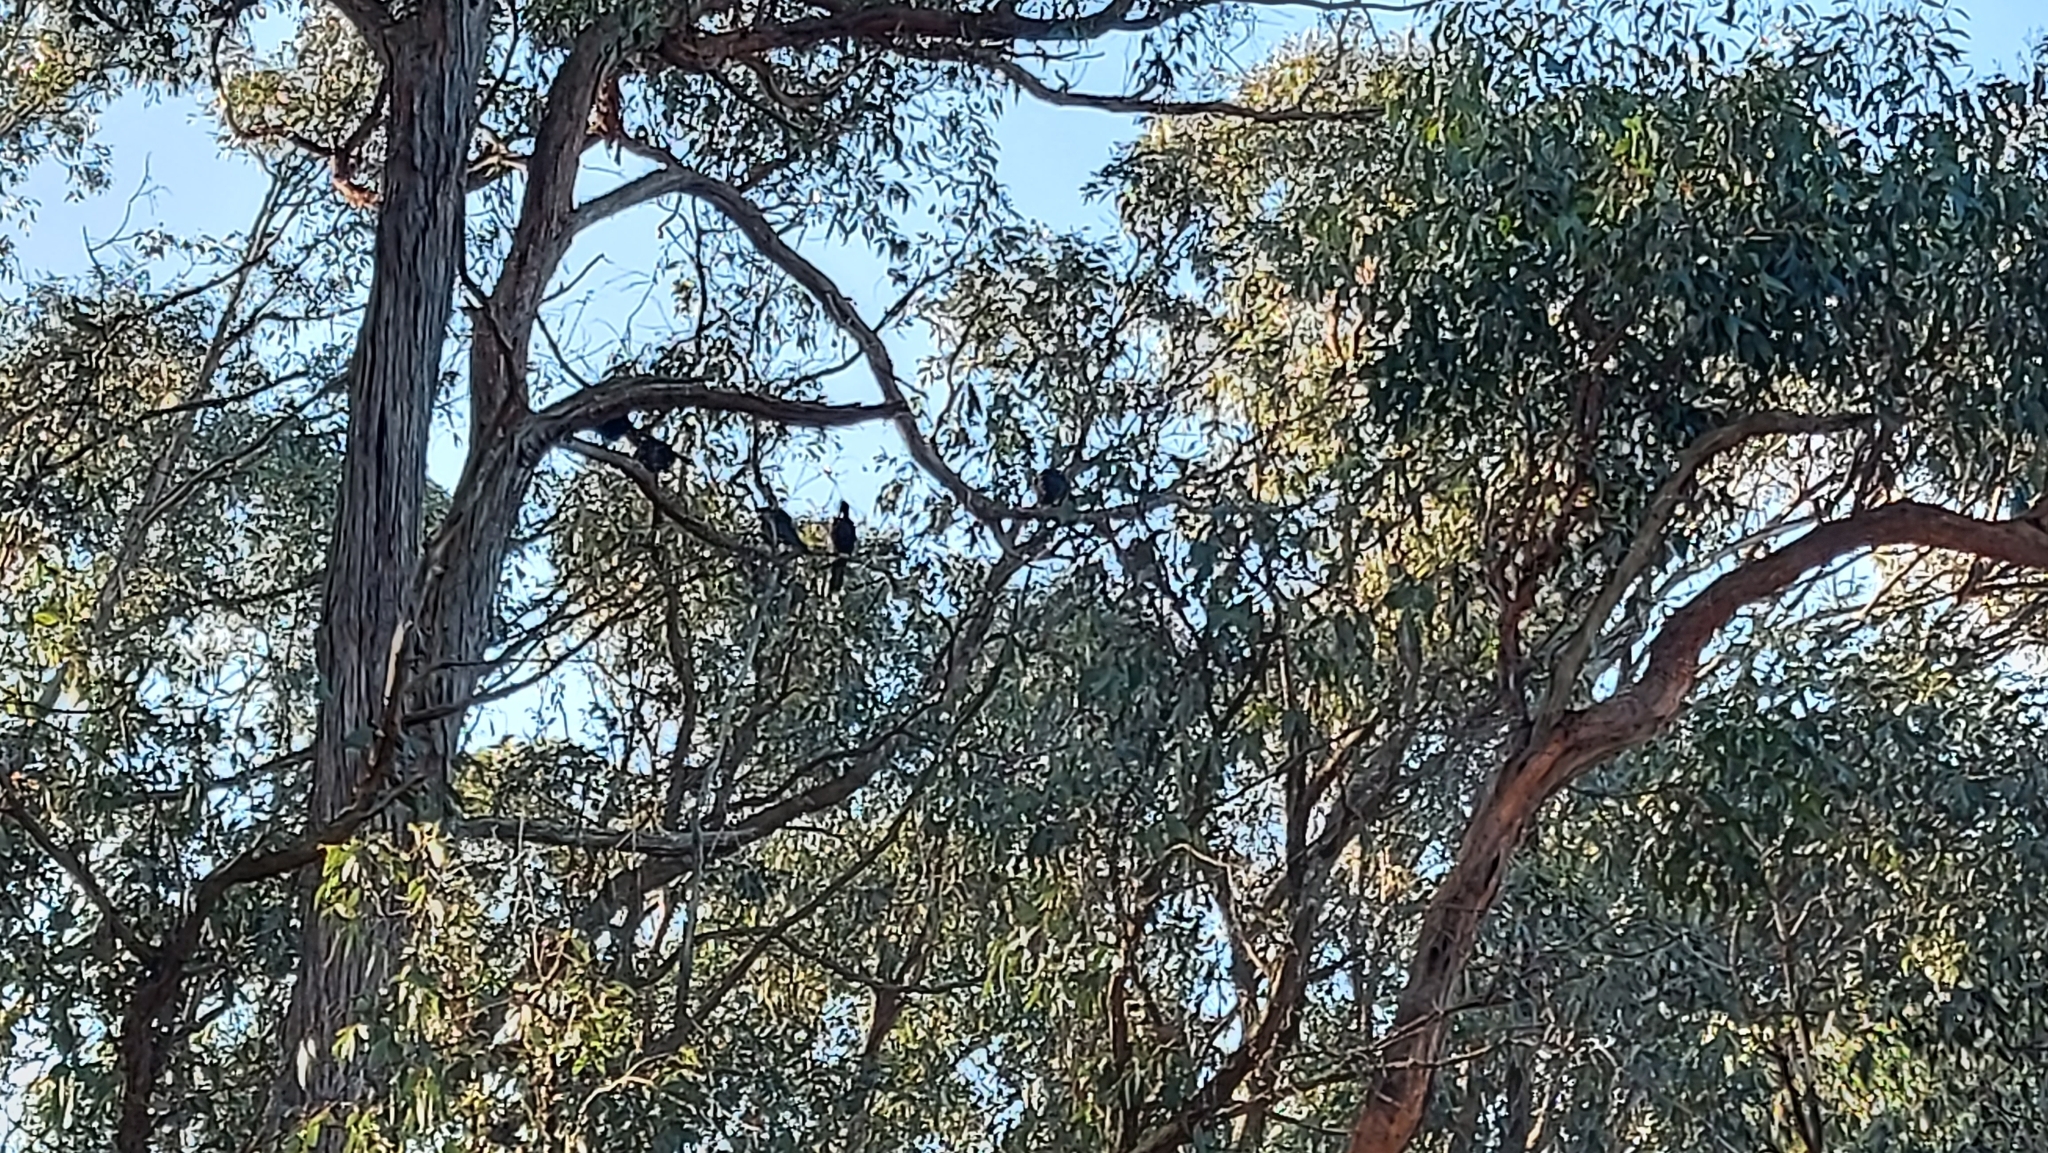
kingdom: Animalia
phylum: Chordata
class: Aves
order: Passeriformes
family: Corcoracidae
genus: Corcorax
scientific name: Corcorax melanoramphos
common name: White-winged chough
